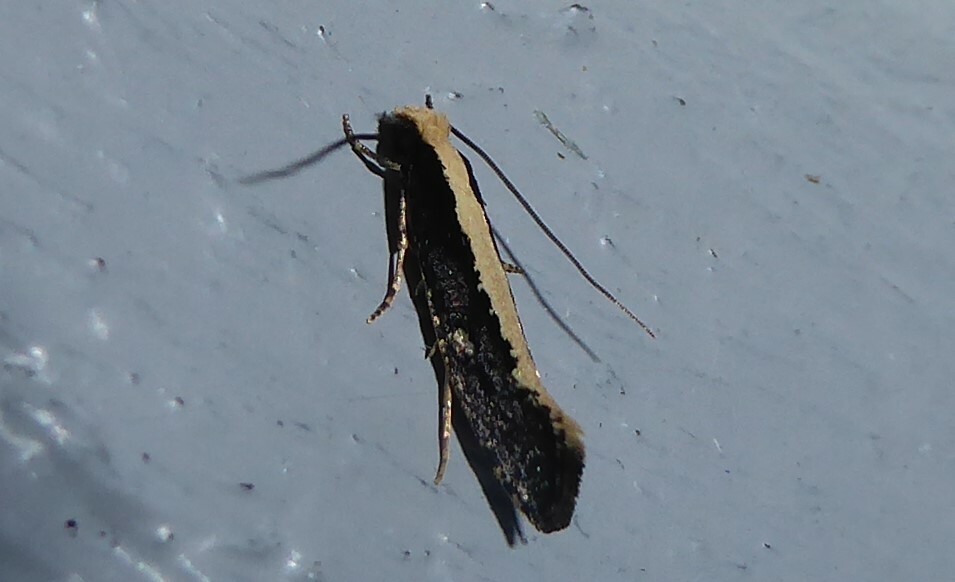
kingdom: Animalia
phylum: Arthropoda
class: Insecta
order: Lepidoptera
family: Tineidae
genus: Monopis
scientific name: Monopis ethelella
